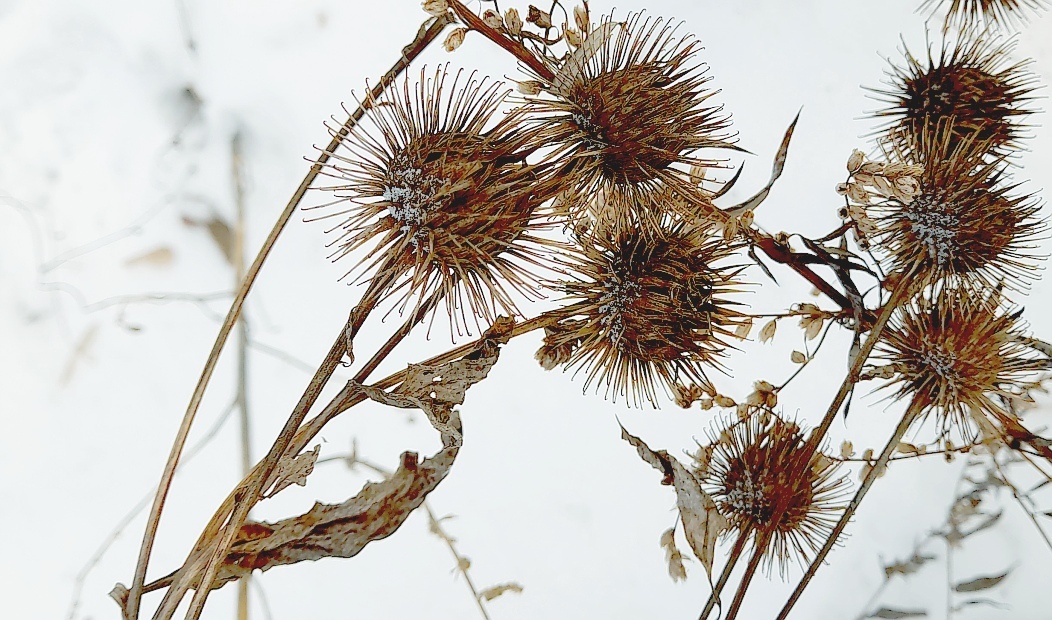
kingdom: Plantae
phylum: Tracheophyta
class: Magnoliopsida
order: Asterales
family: Asteraceae
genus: Arctium
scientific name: Arctium lappa
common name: Greater burdock
